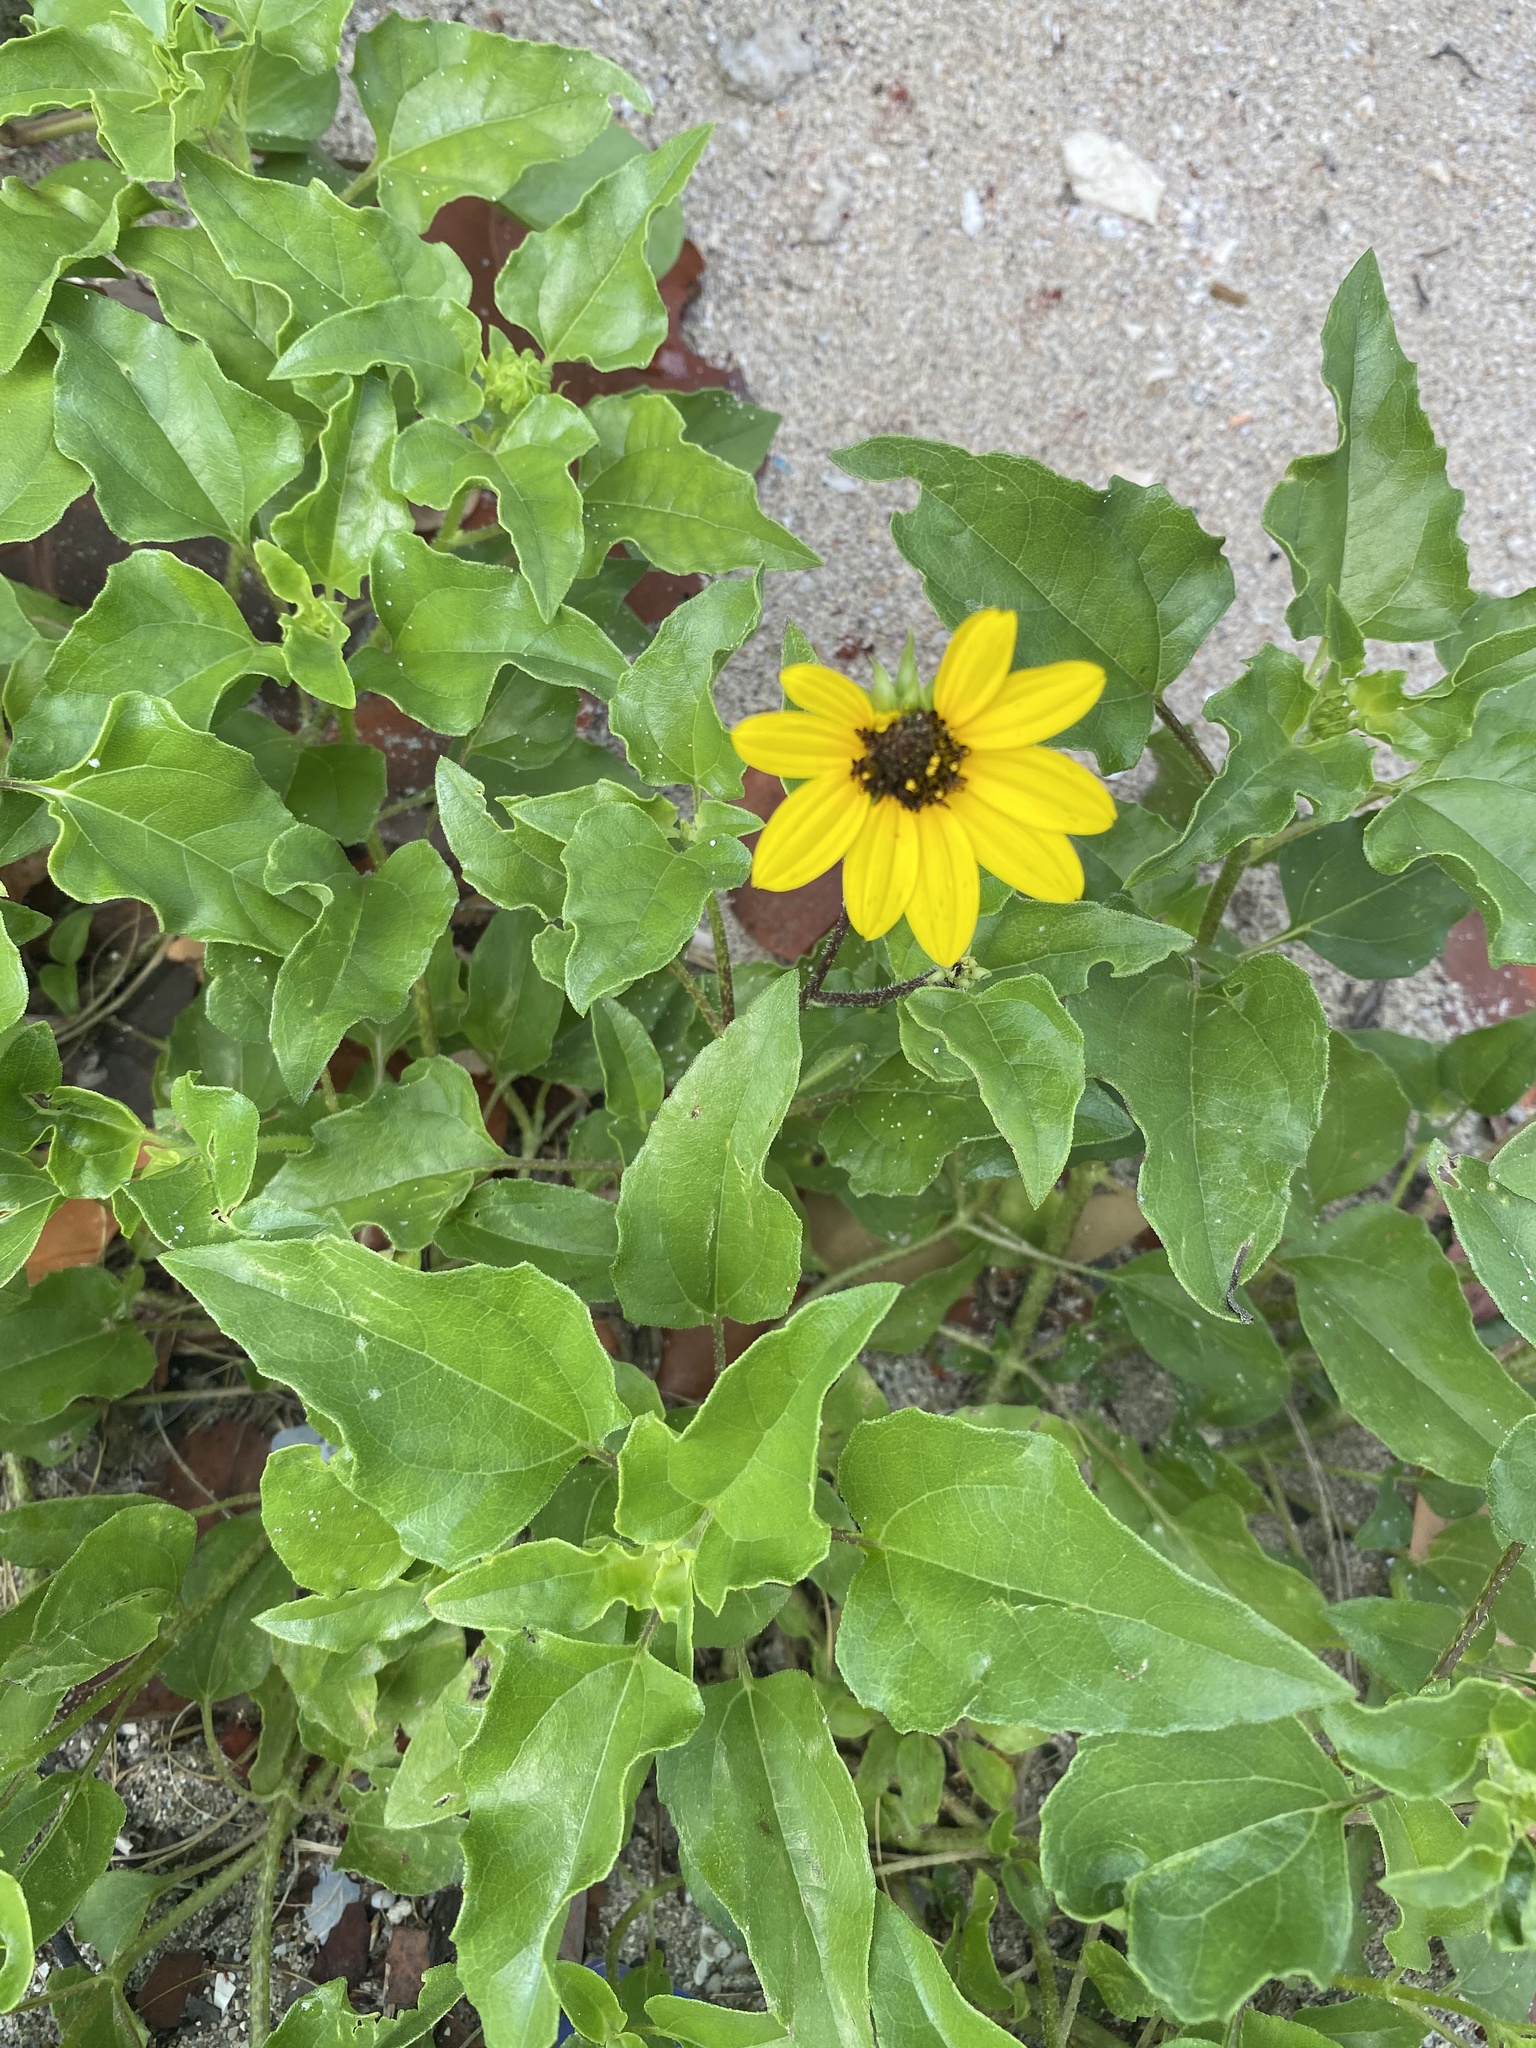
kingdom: Plantae
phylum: Tracheophyta
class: Magnoliopsida
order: Asterales
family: Asteraceae
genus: Helianthus
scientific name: Helianthus debilis
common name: Weak sunflower
